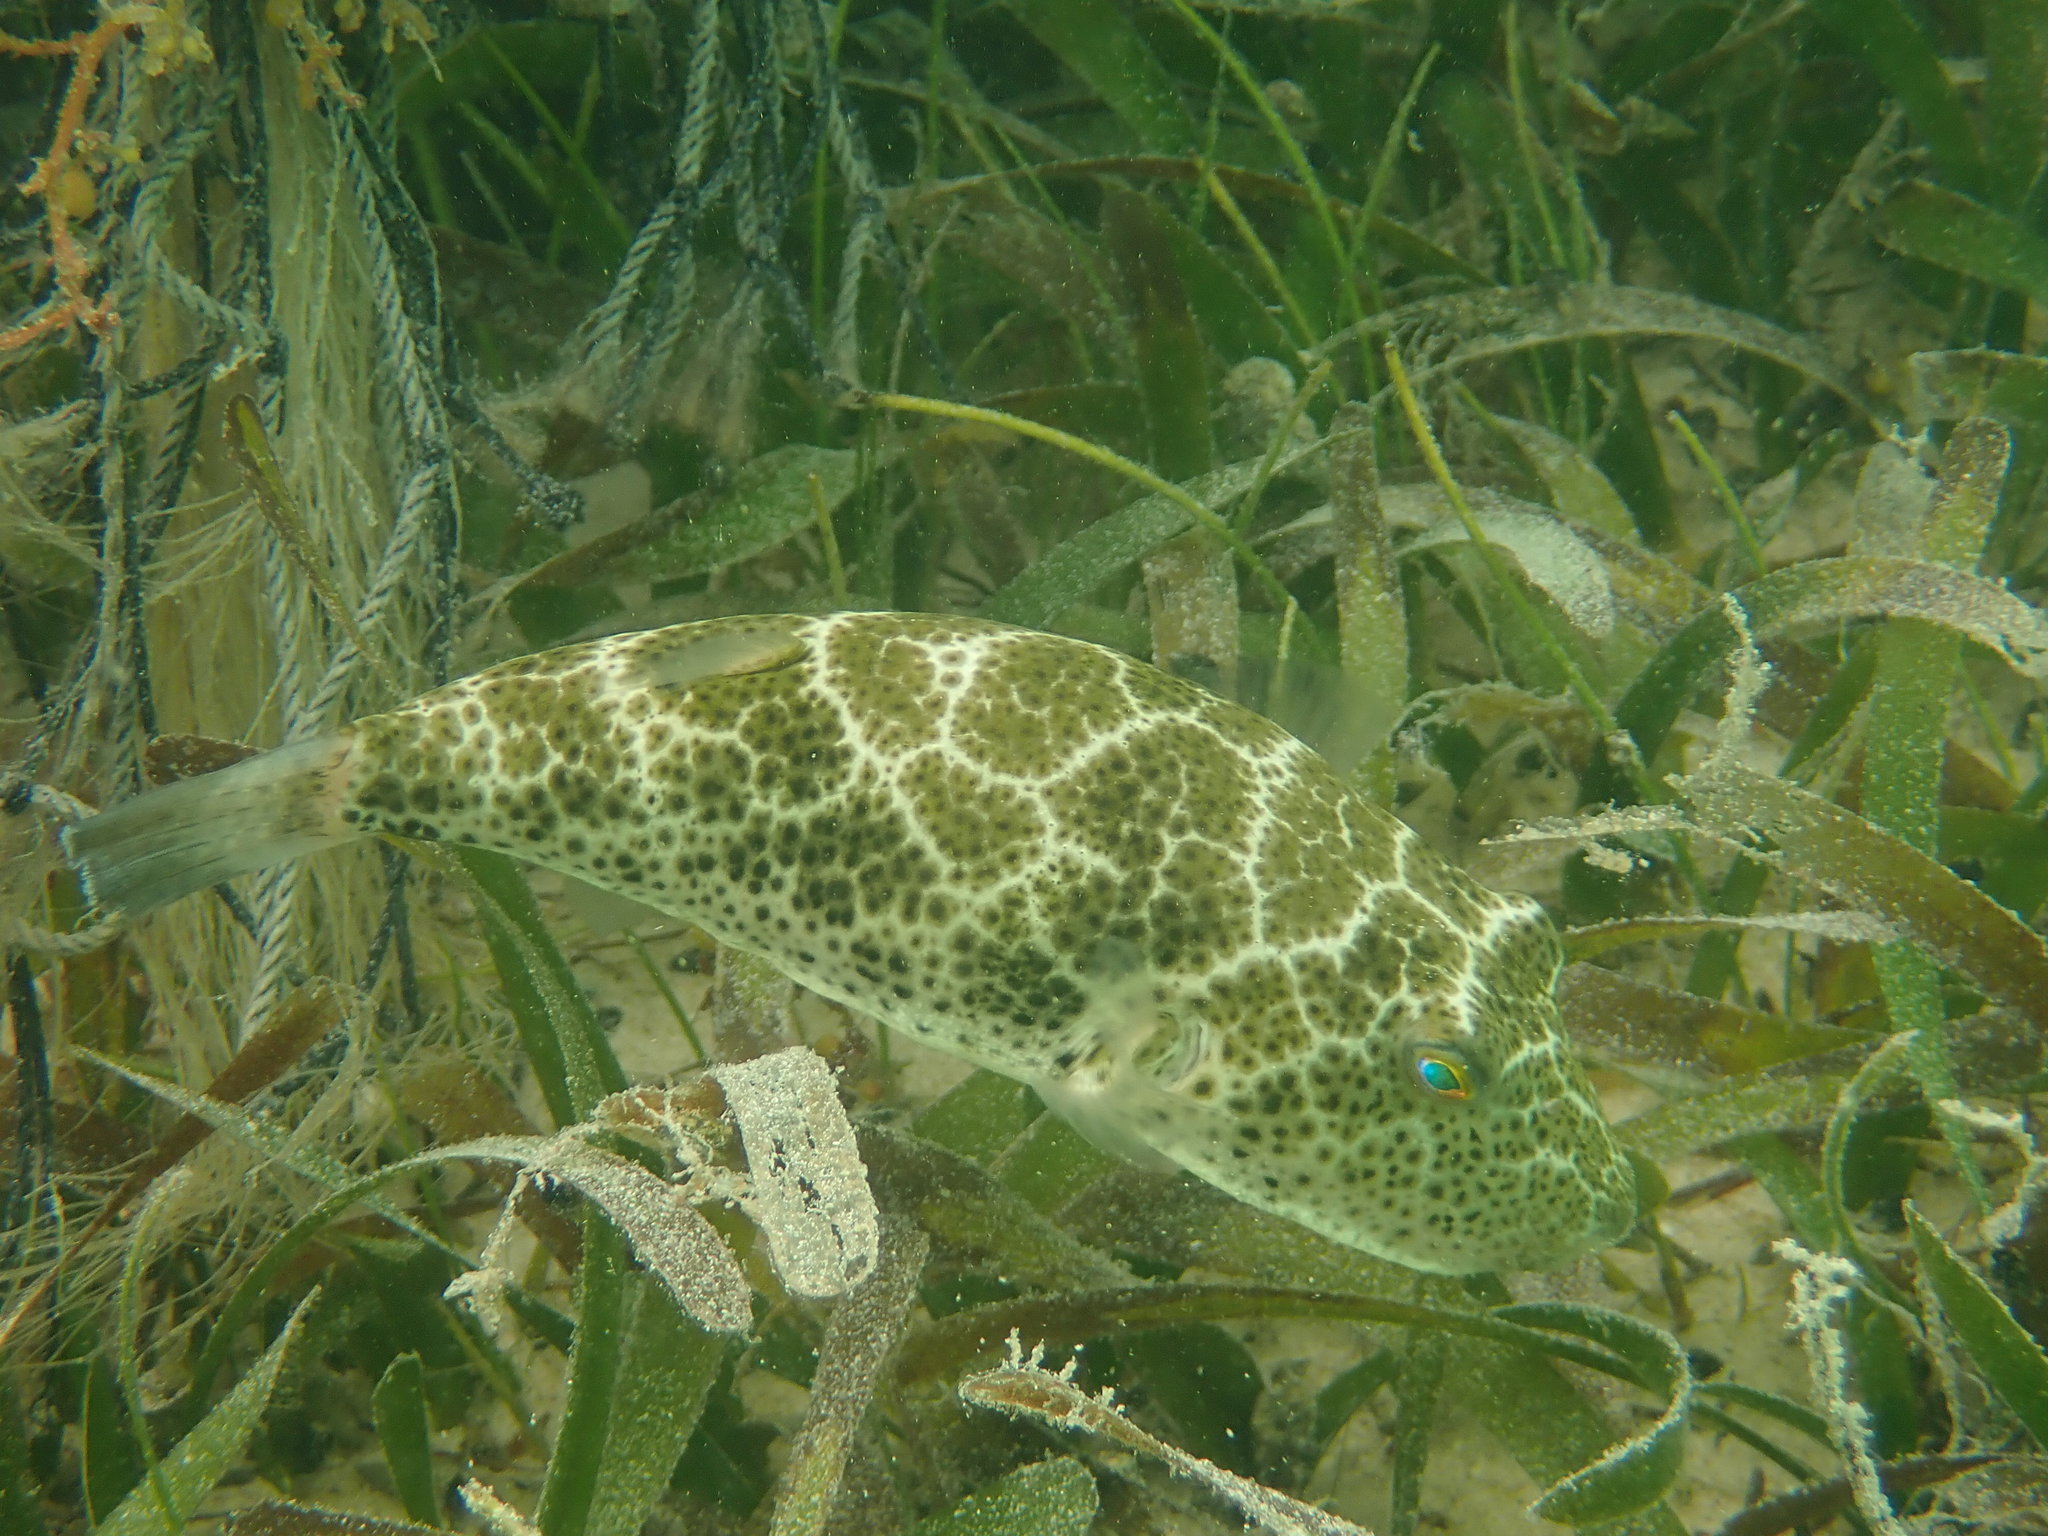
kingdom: Animalia
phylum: Chordata
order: Tetraodontiformes
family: Tetraodontidae
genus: Sphoeroides
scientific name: Sphoeroides testudineus
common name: Checkered puffer
